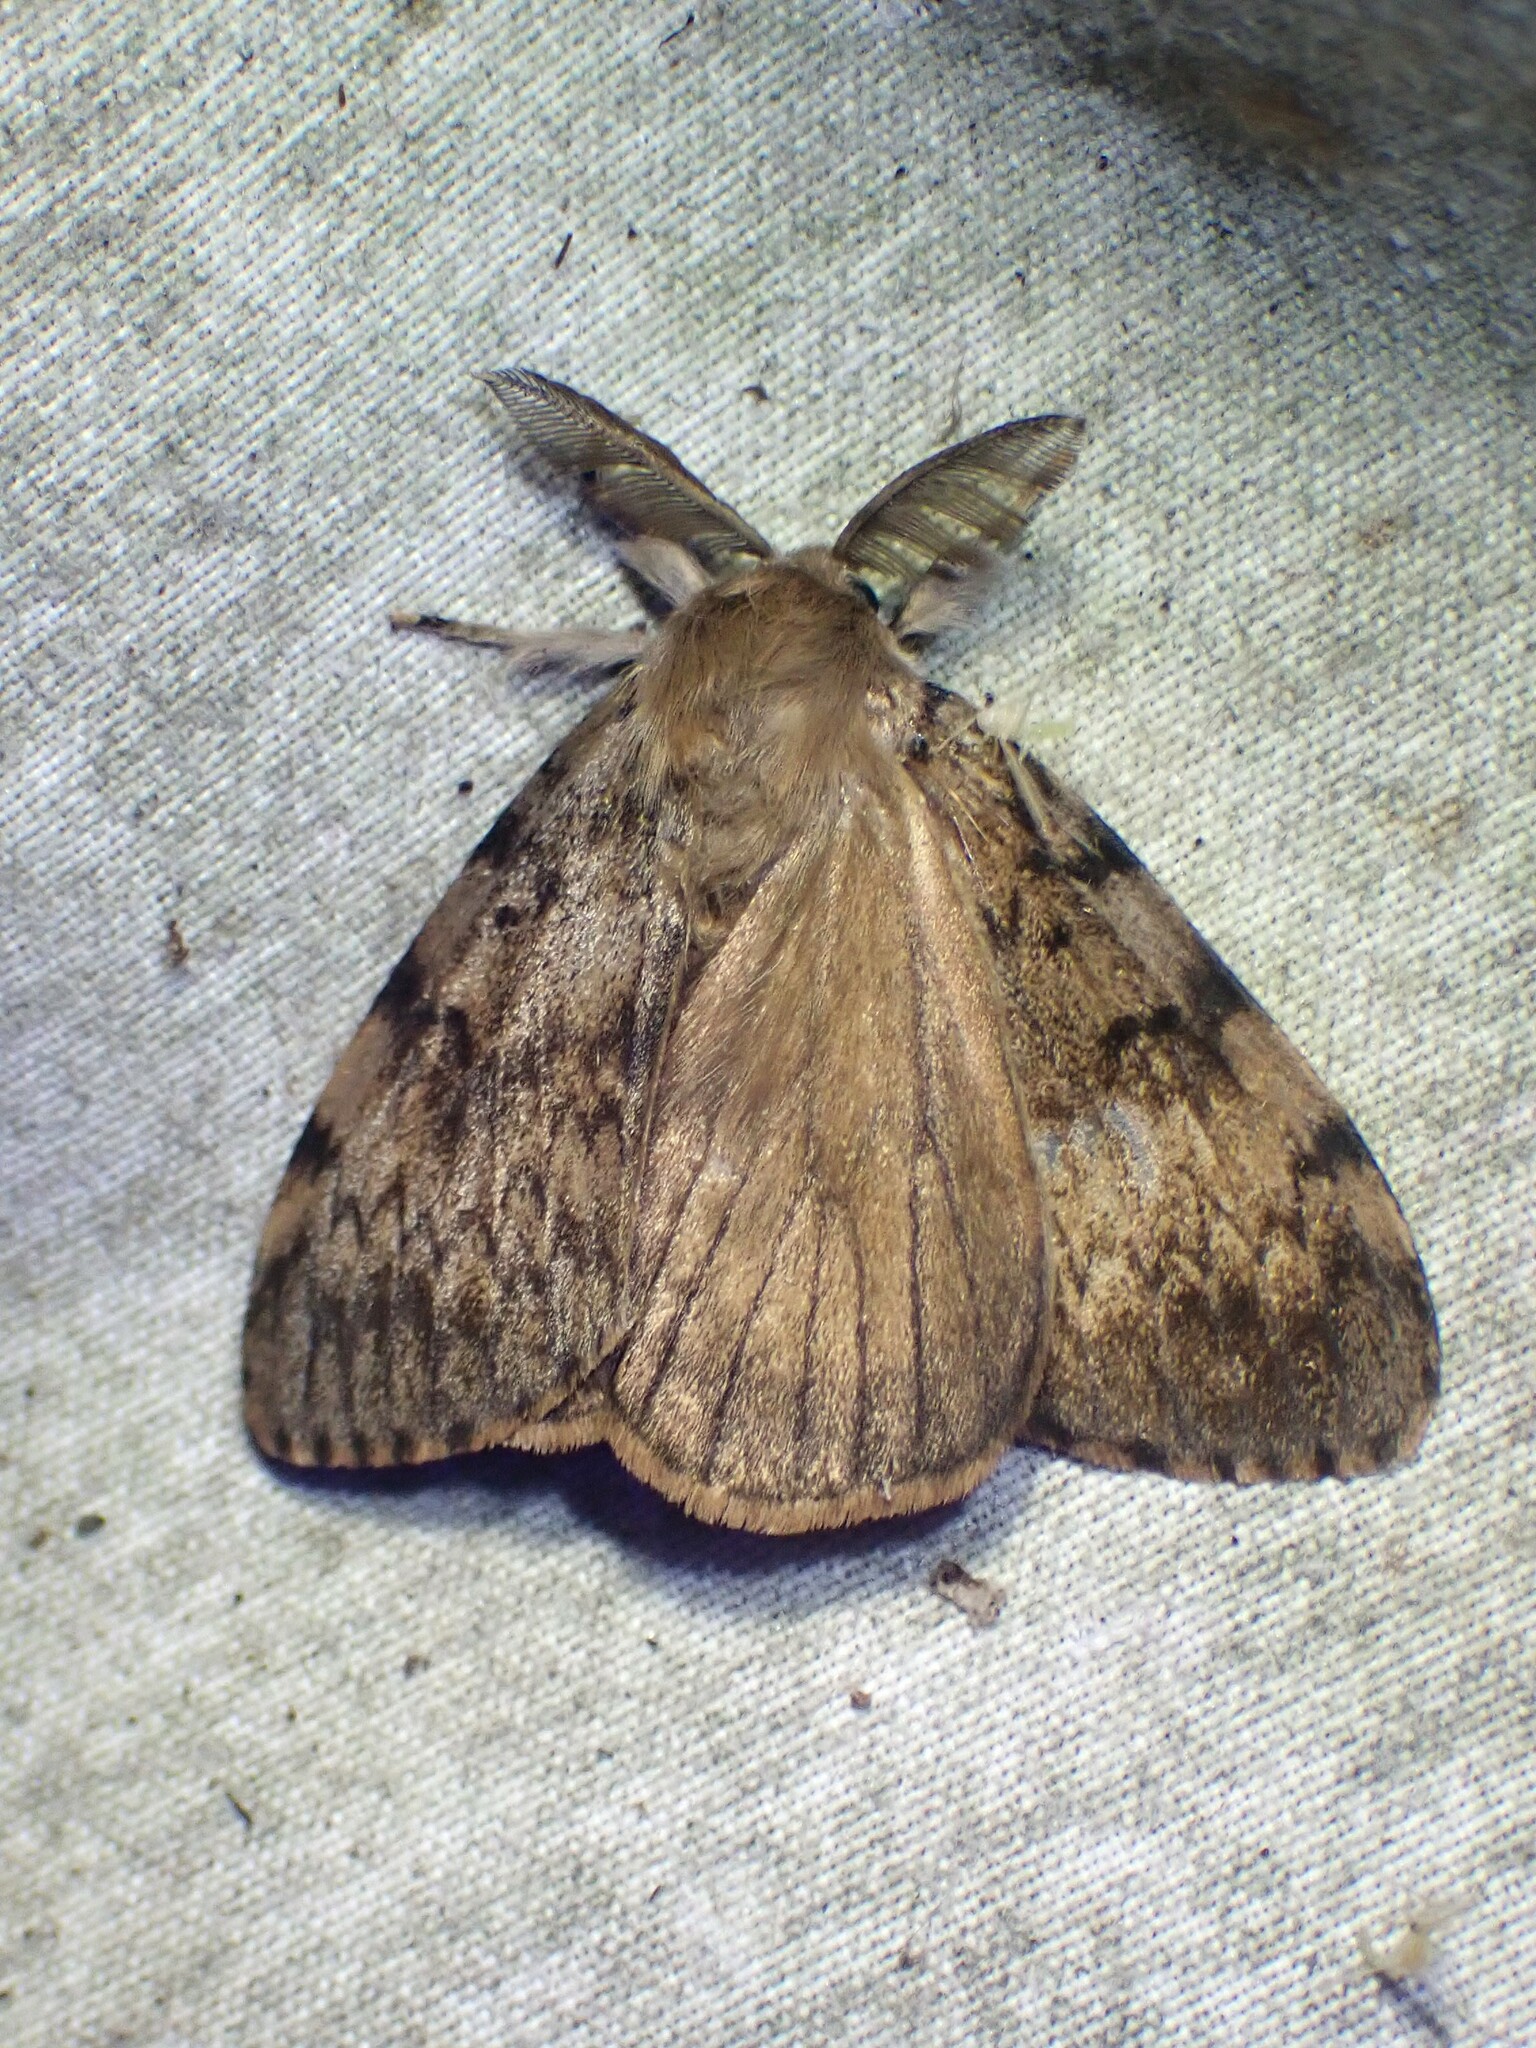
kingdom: Animalia
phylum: Arthropoda
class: Insecta
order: Lepidoptera
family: Erebidae
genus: Lymantria
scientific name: Lymantria dispar
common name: Gypsy moth
